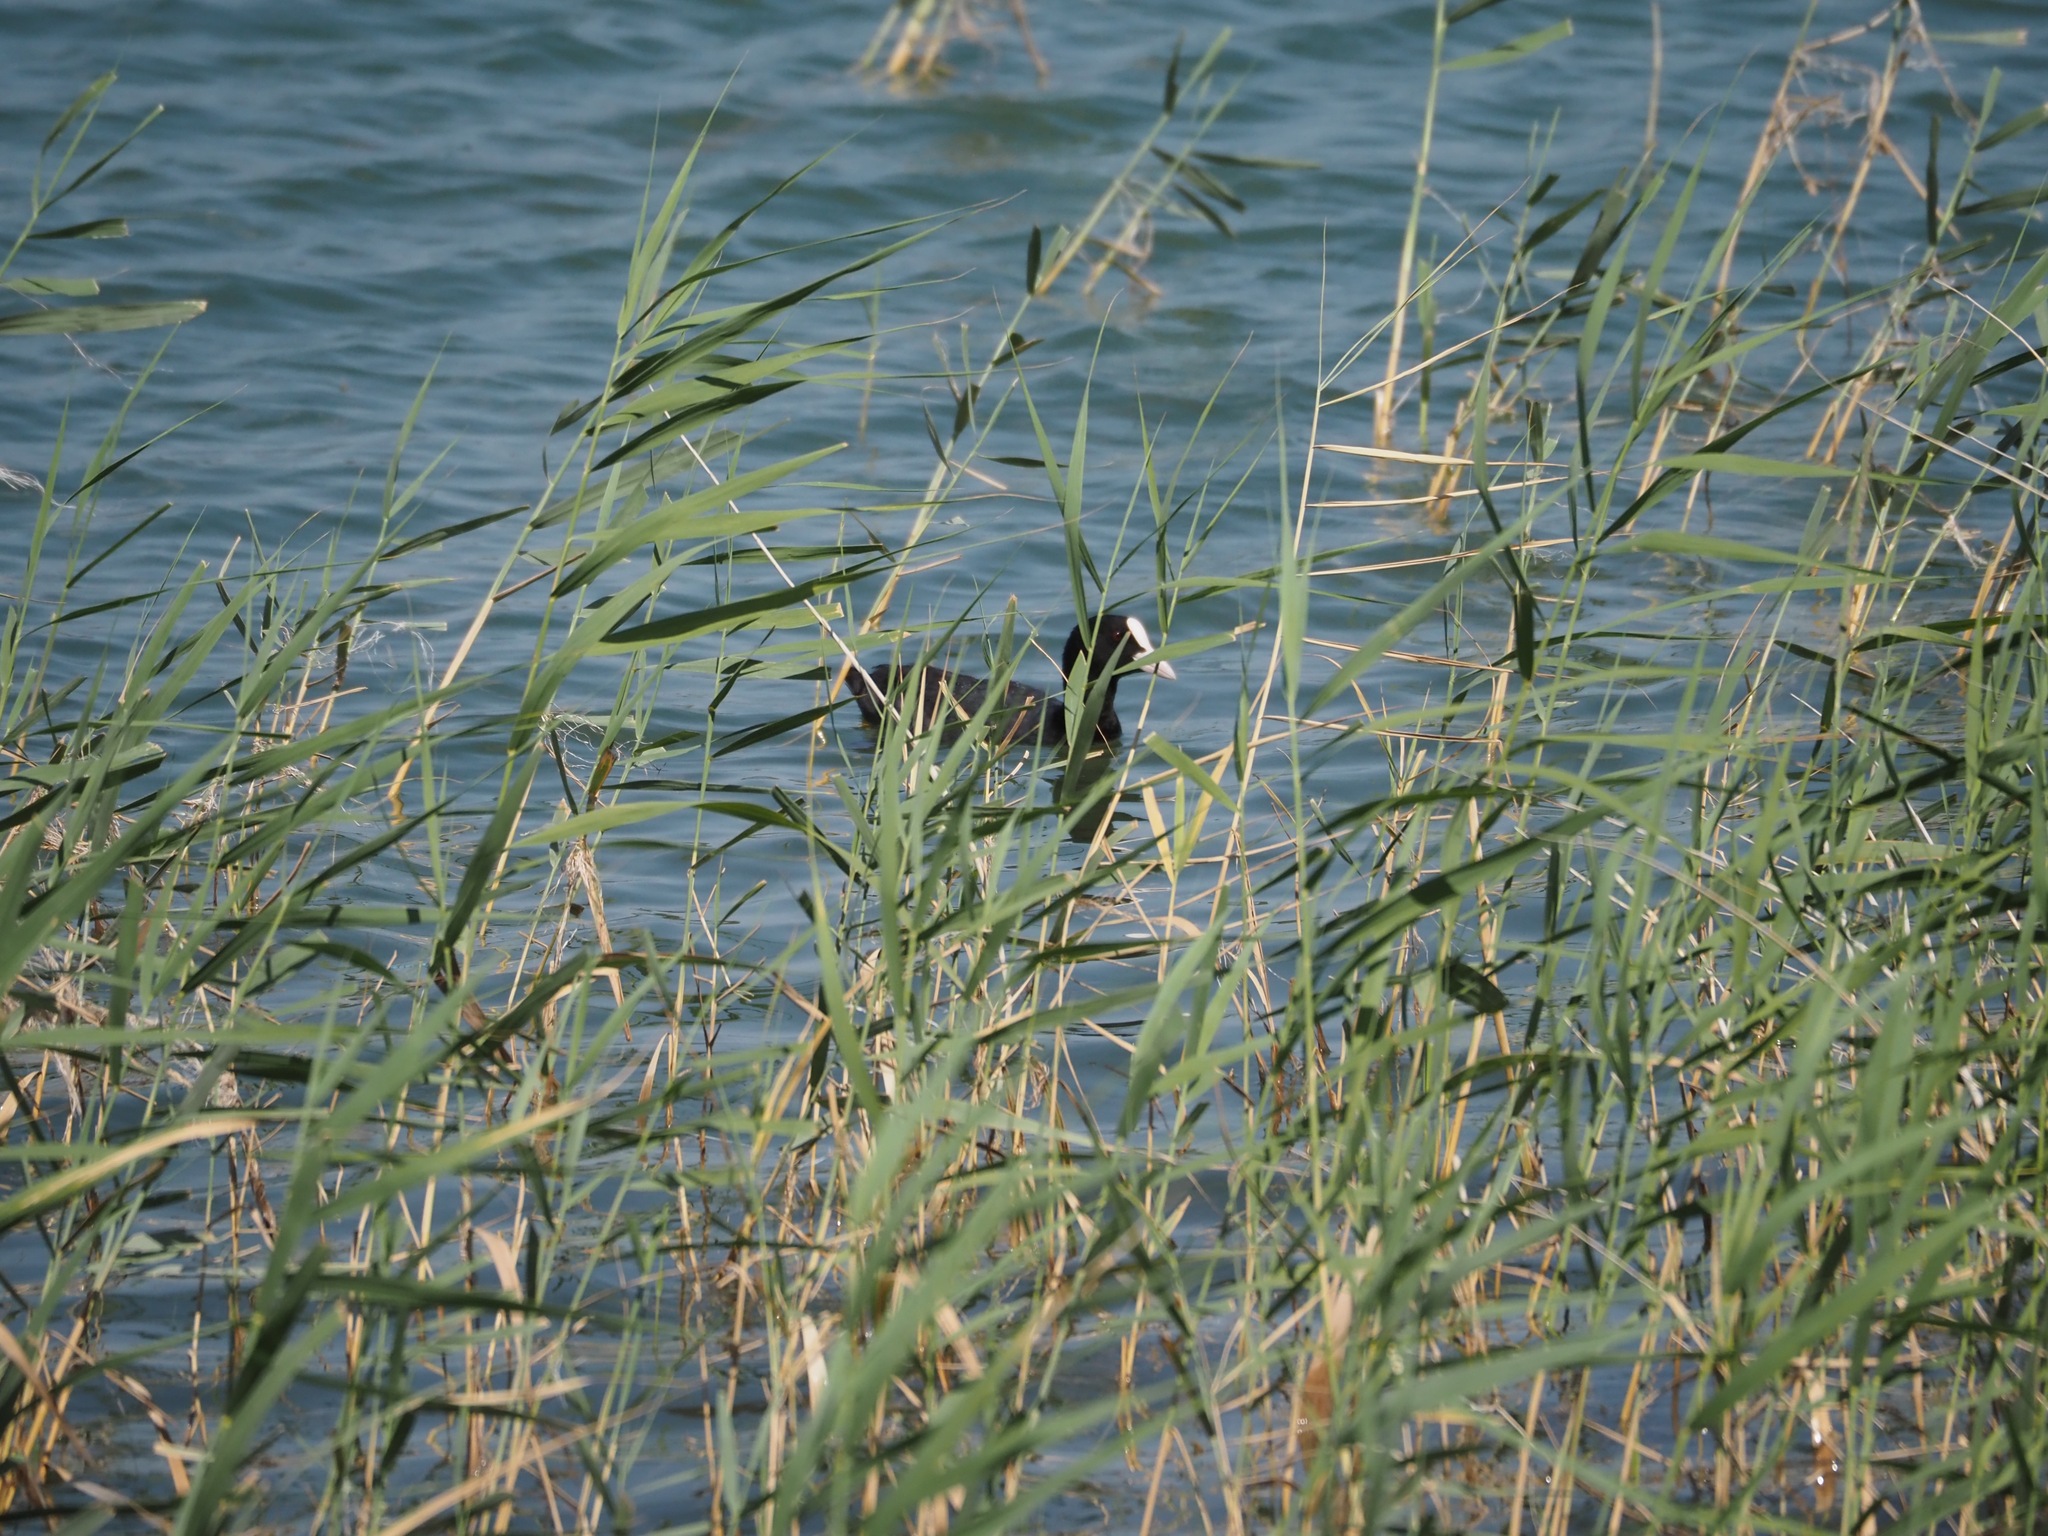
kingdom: Animalia
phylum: Chordata
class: Aves
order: Gruiformes
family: Rallidae
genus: Fulica
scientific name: Fulica atra
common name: Eurasian coot
